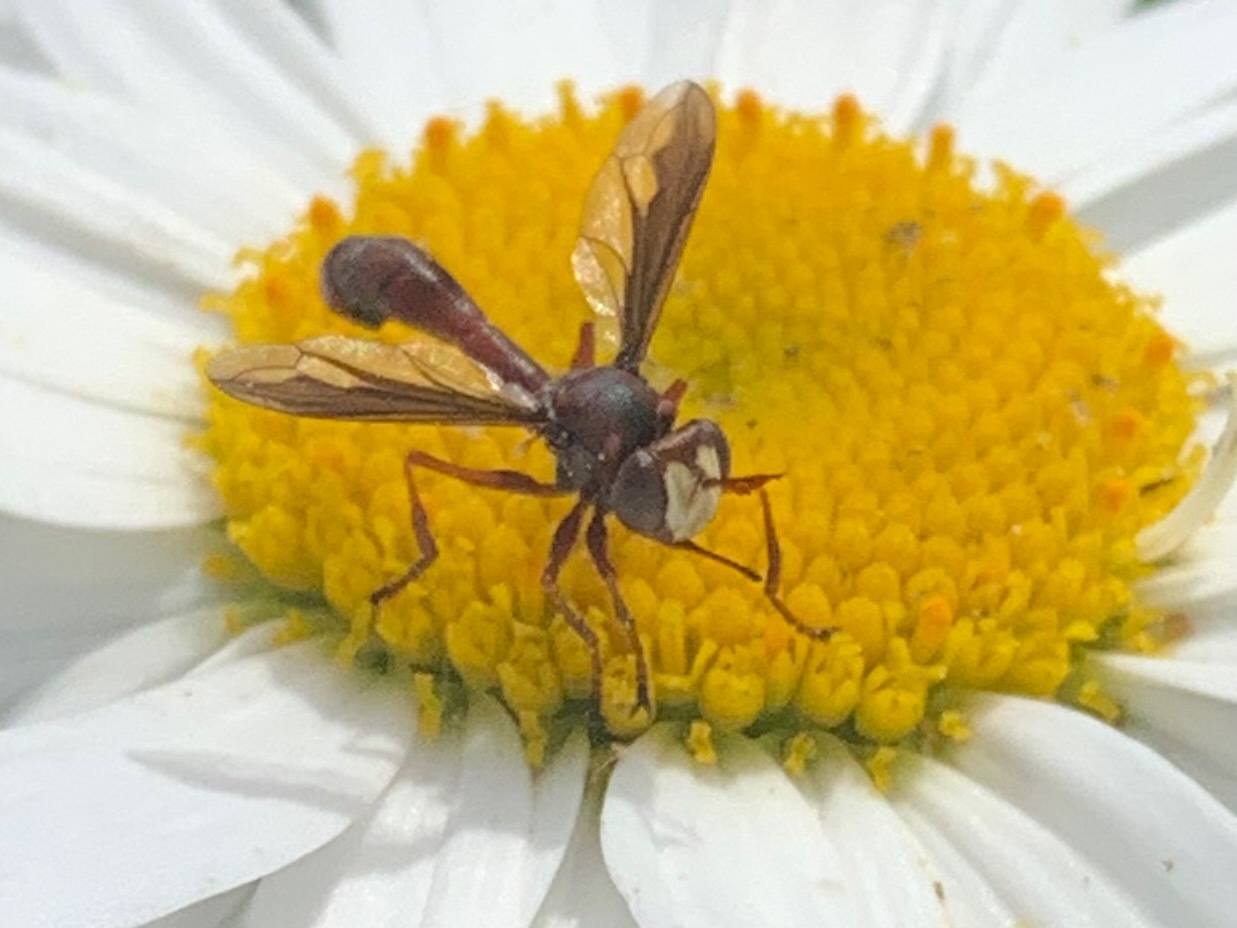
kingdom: Animalia
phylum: Arthropoda
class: Insecta
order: Diptera
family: Conopidae
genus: Physocephala
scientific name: Physocephala burgessi
